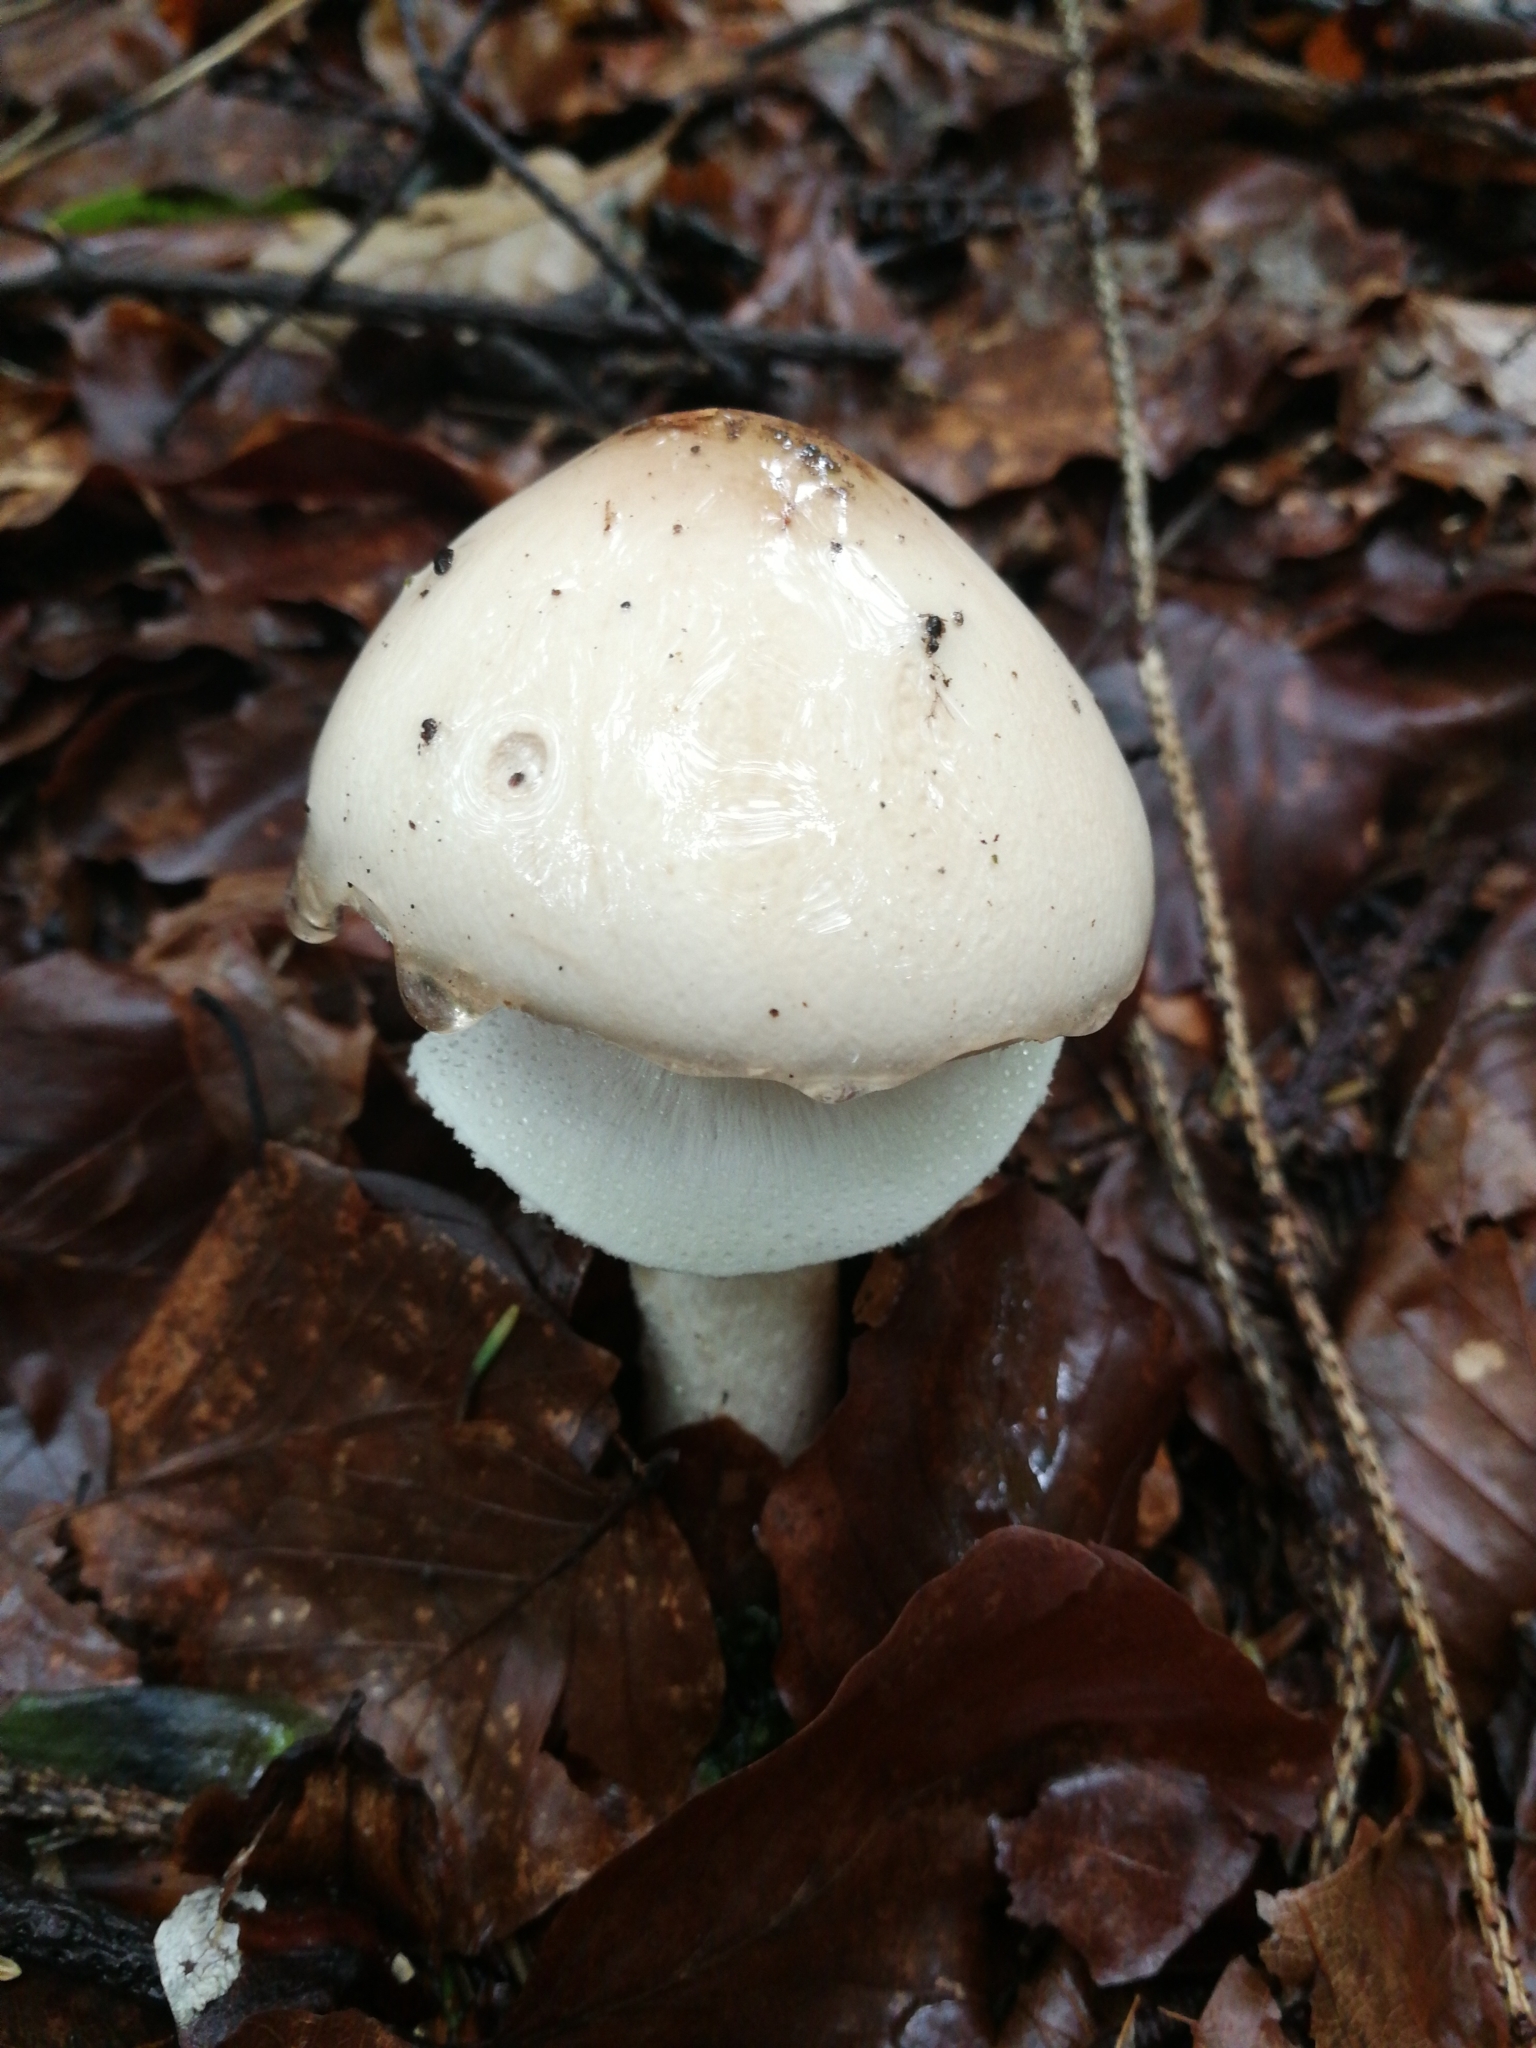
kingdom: Fungi
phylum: Basidiomycota
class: Agaricomycetes
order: Agaricales
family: Amanitaceae
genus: Limacellopsis
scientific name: Limacellopsis guttata
